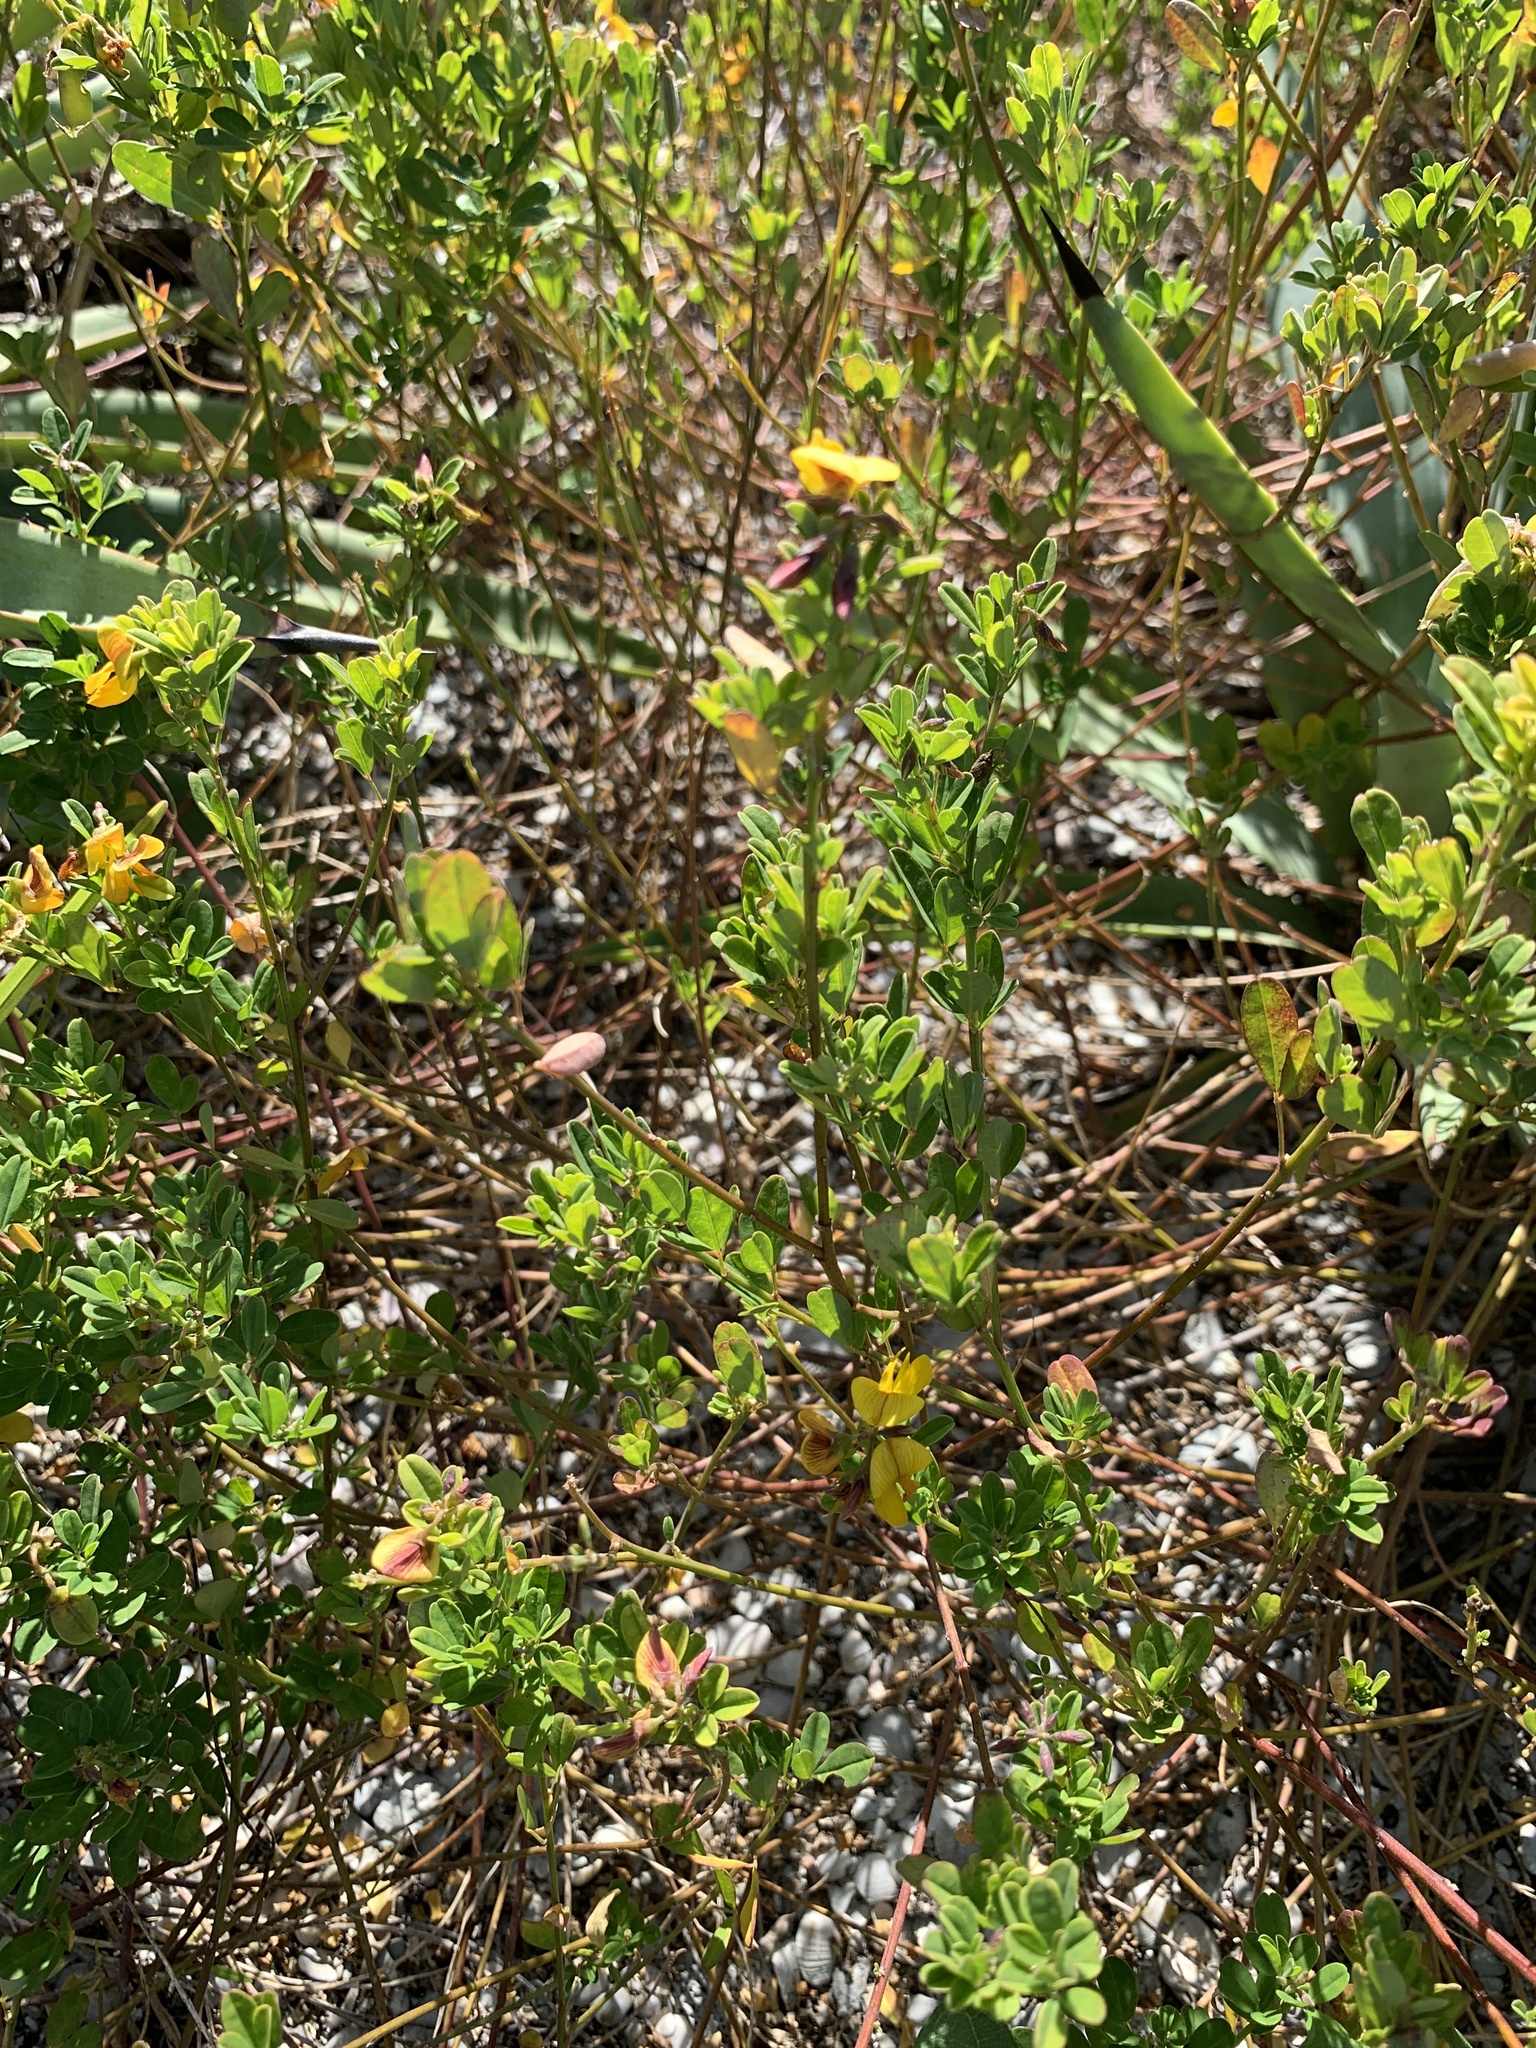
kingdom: Plantae
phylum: Tracheophyta
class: Magnoliopsida
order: Fabales
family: Fabaceae
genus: Arachis
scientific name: Arachis glabrata
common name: Rhizoma peanut
